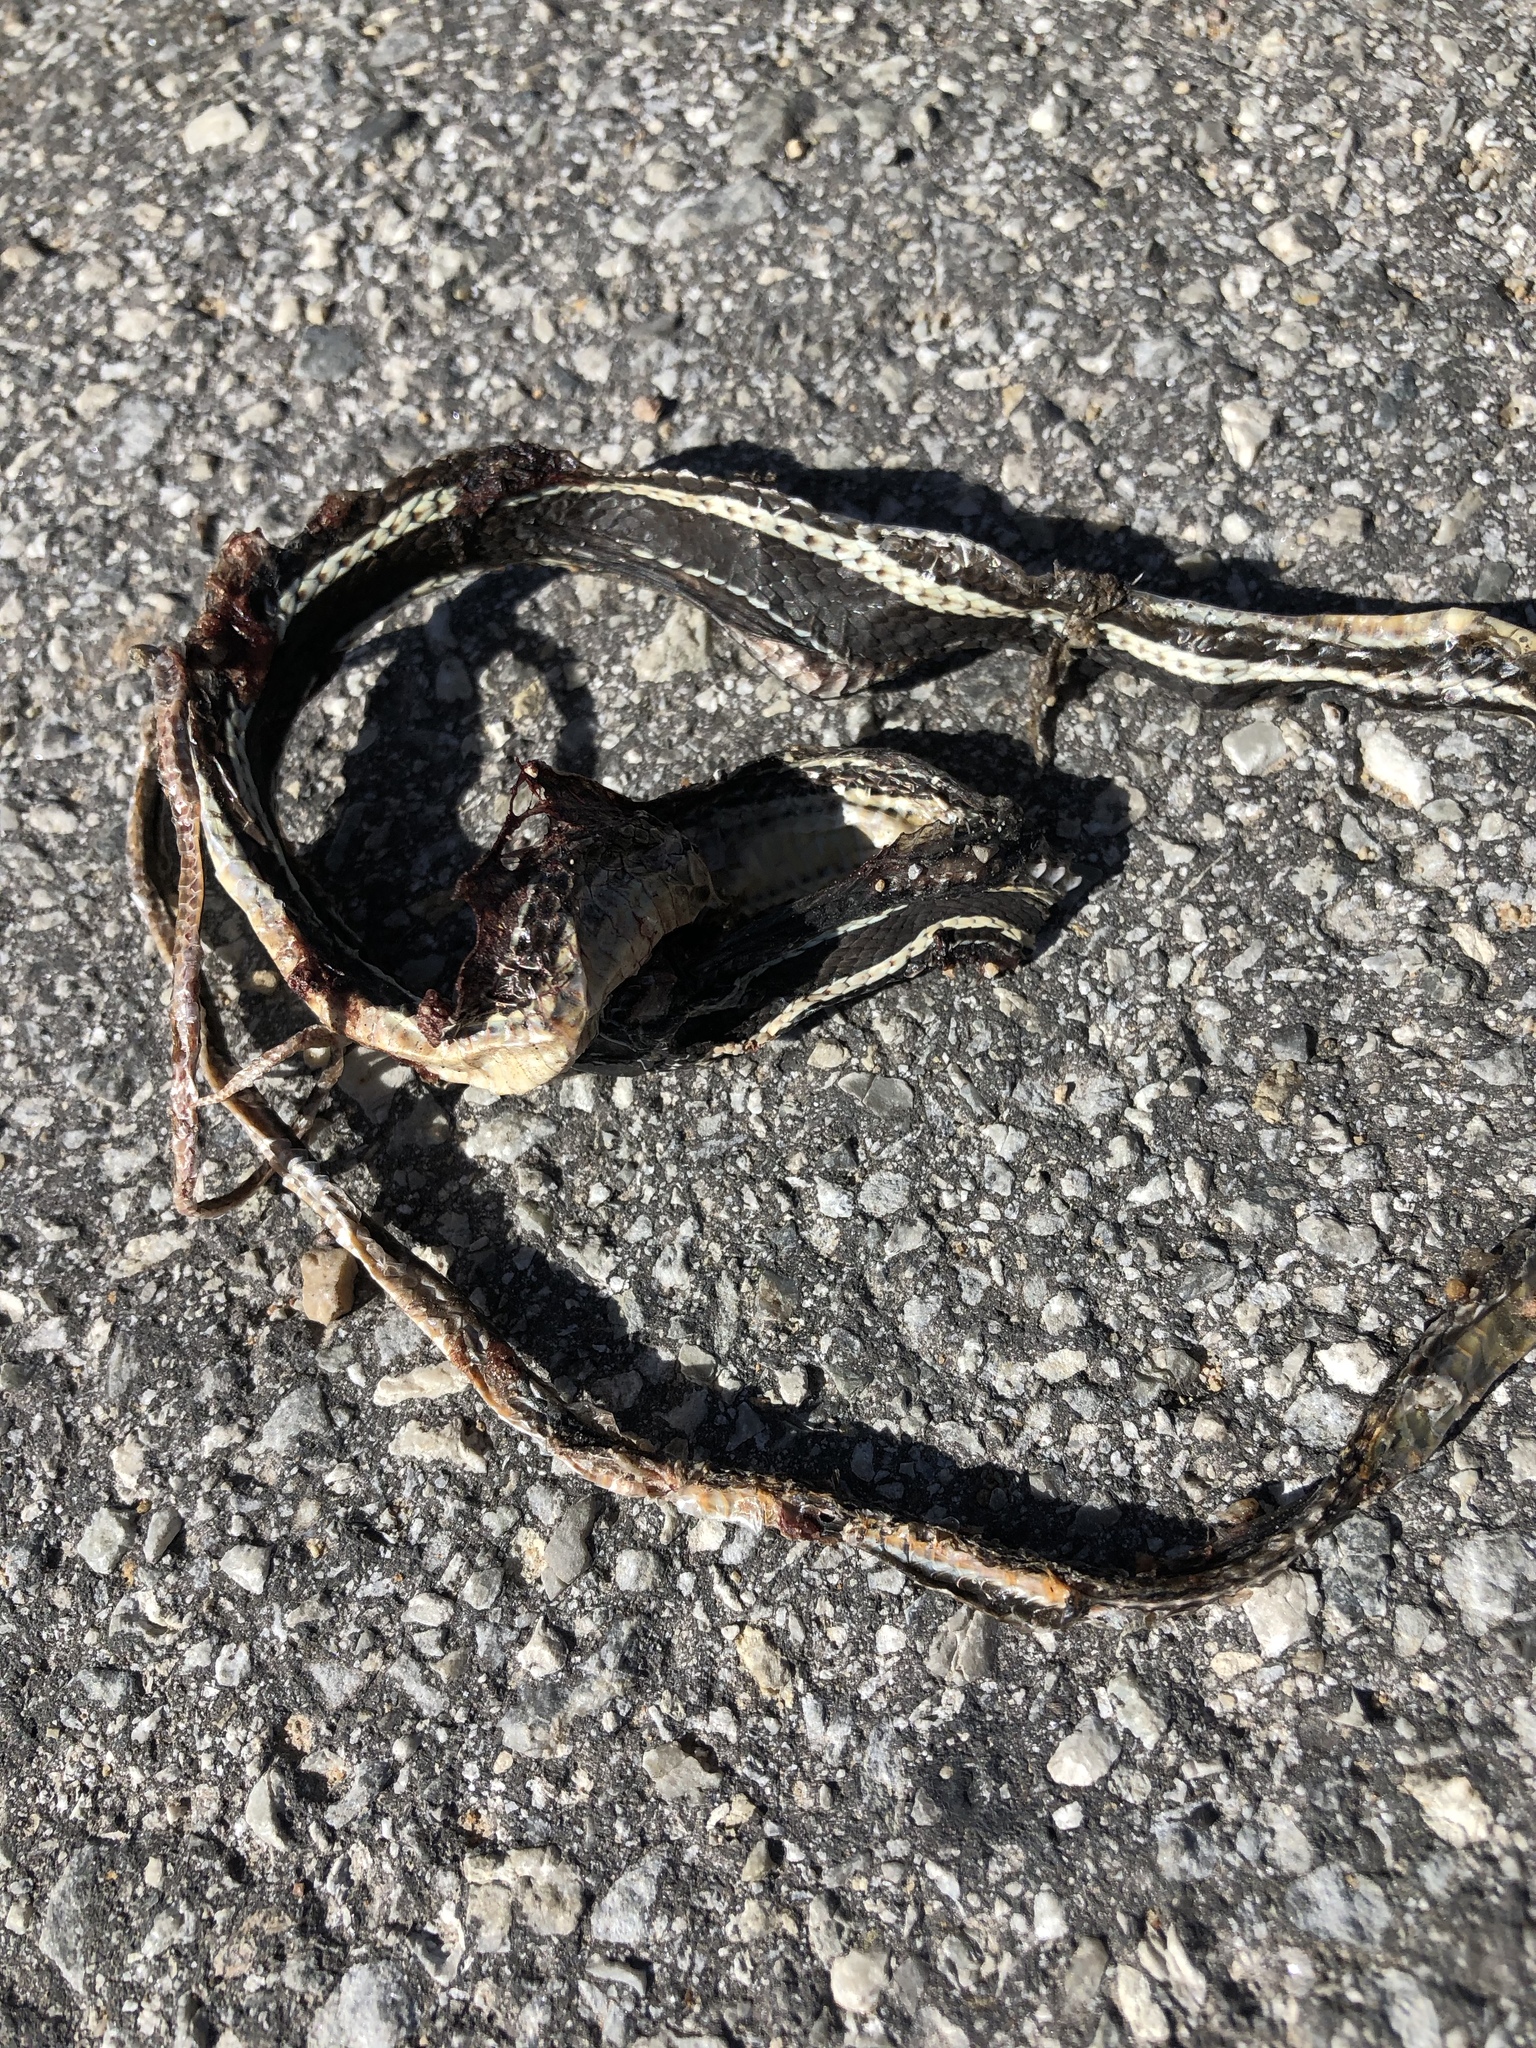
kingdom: Animalia
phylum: Chordata
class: Squamata
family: Colubridae
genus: Masticophis
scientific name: Masticophis taeniatus
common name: Striped whipsnake
